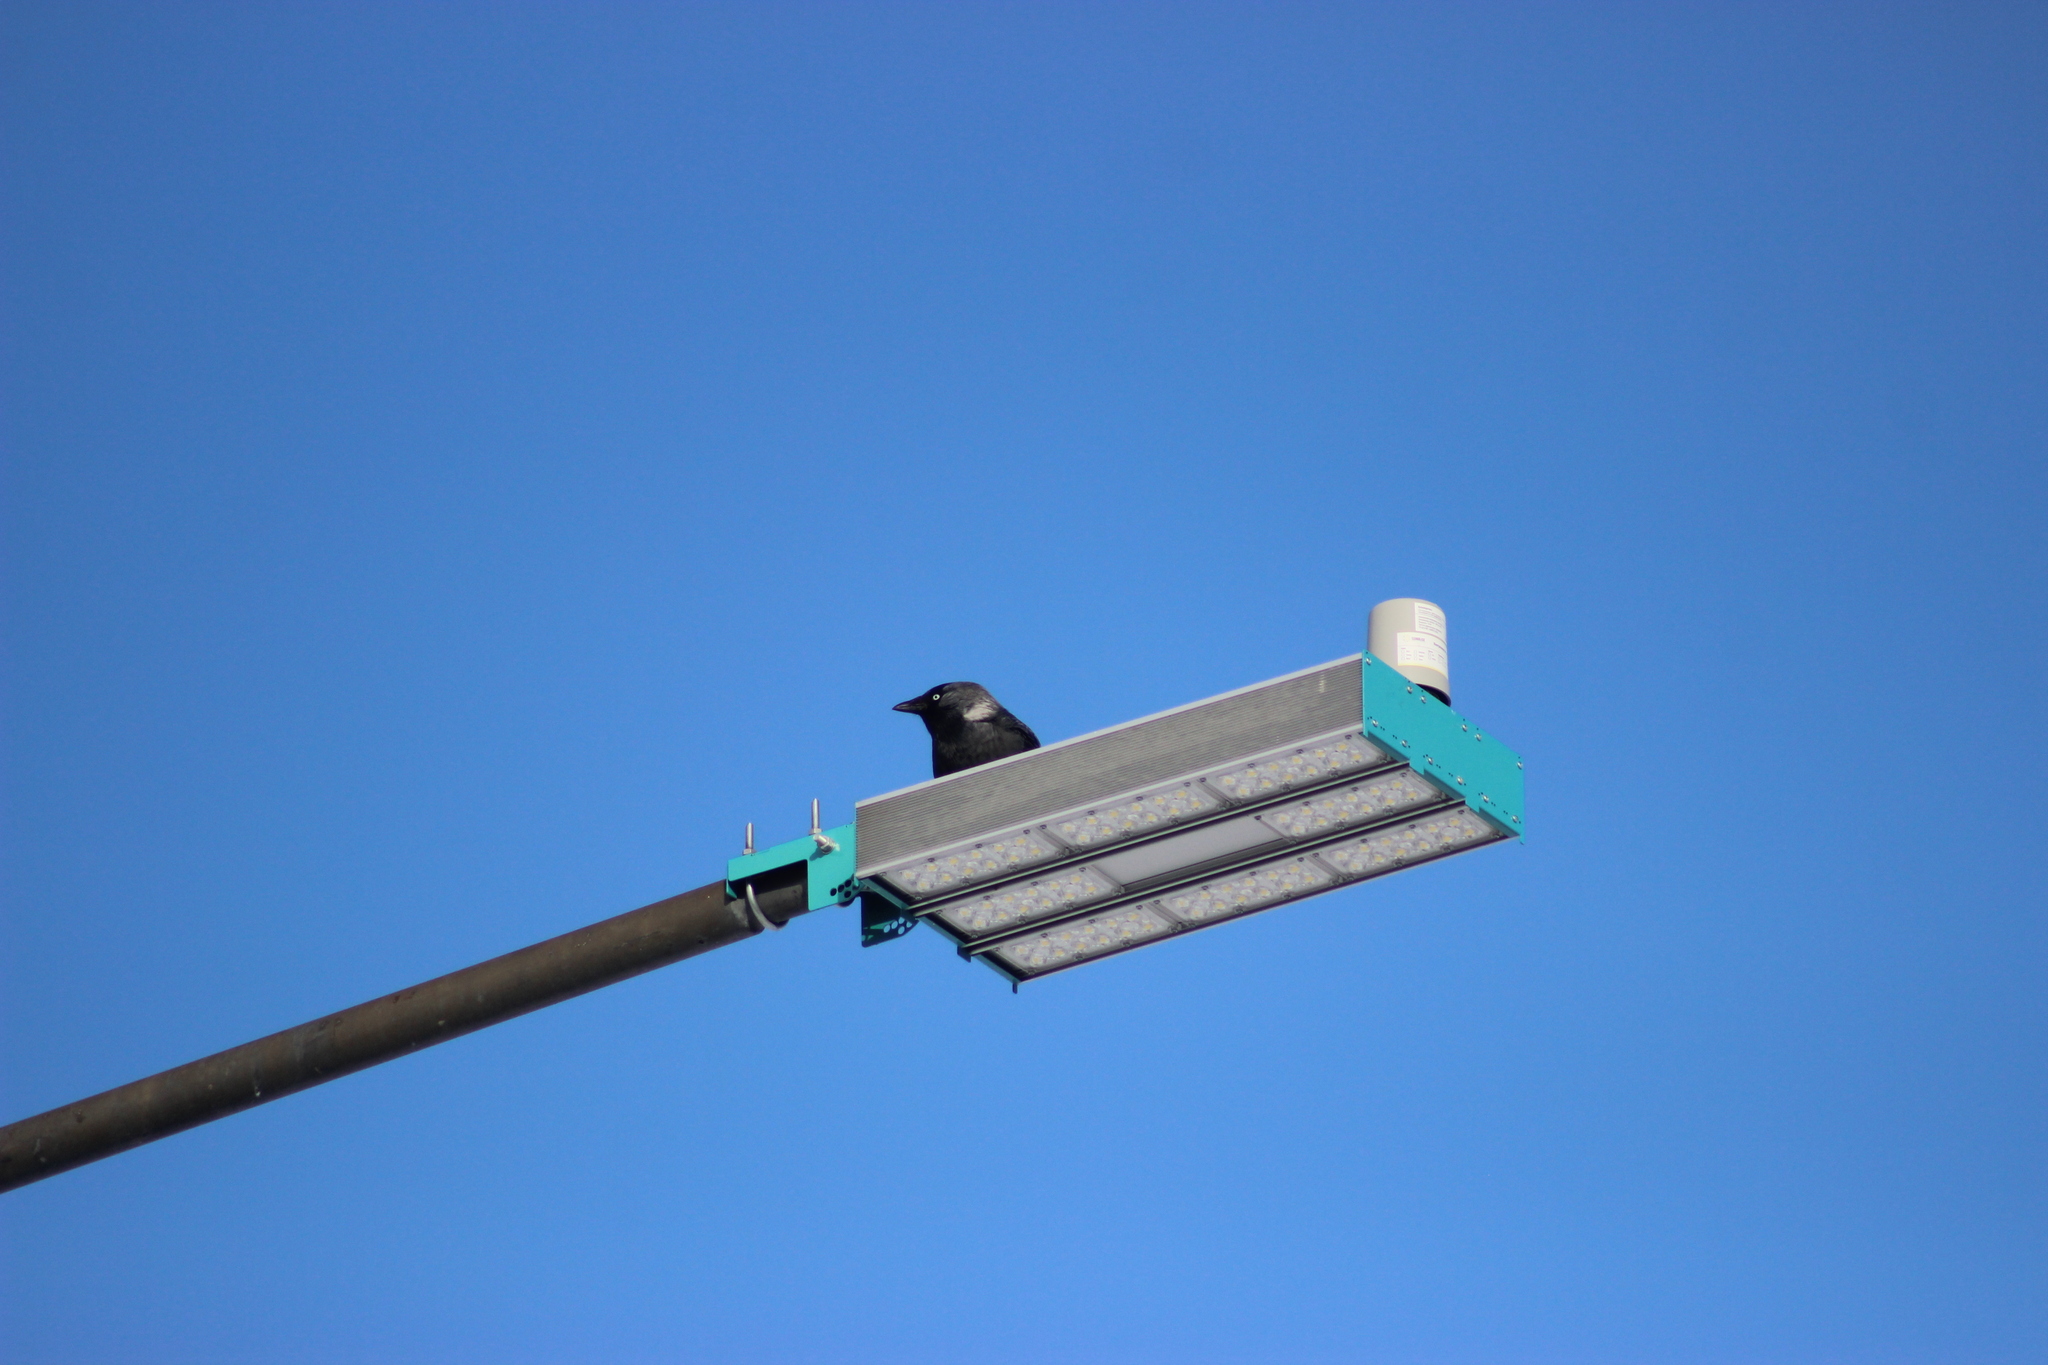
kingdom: Animalia
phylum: Chordata
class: Aves
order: Passeriformes
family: Corvidae
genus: Coloeus
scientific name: Coloeus monedula
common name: Western jackdaw
